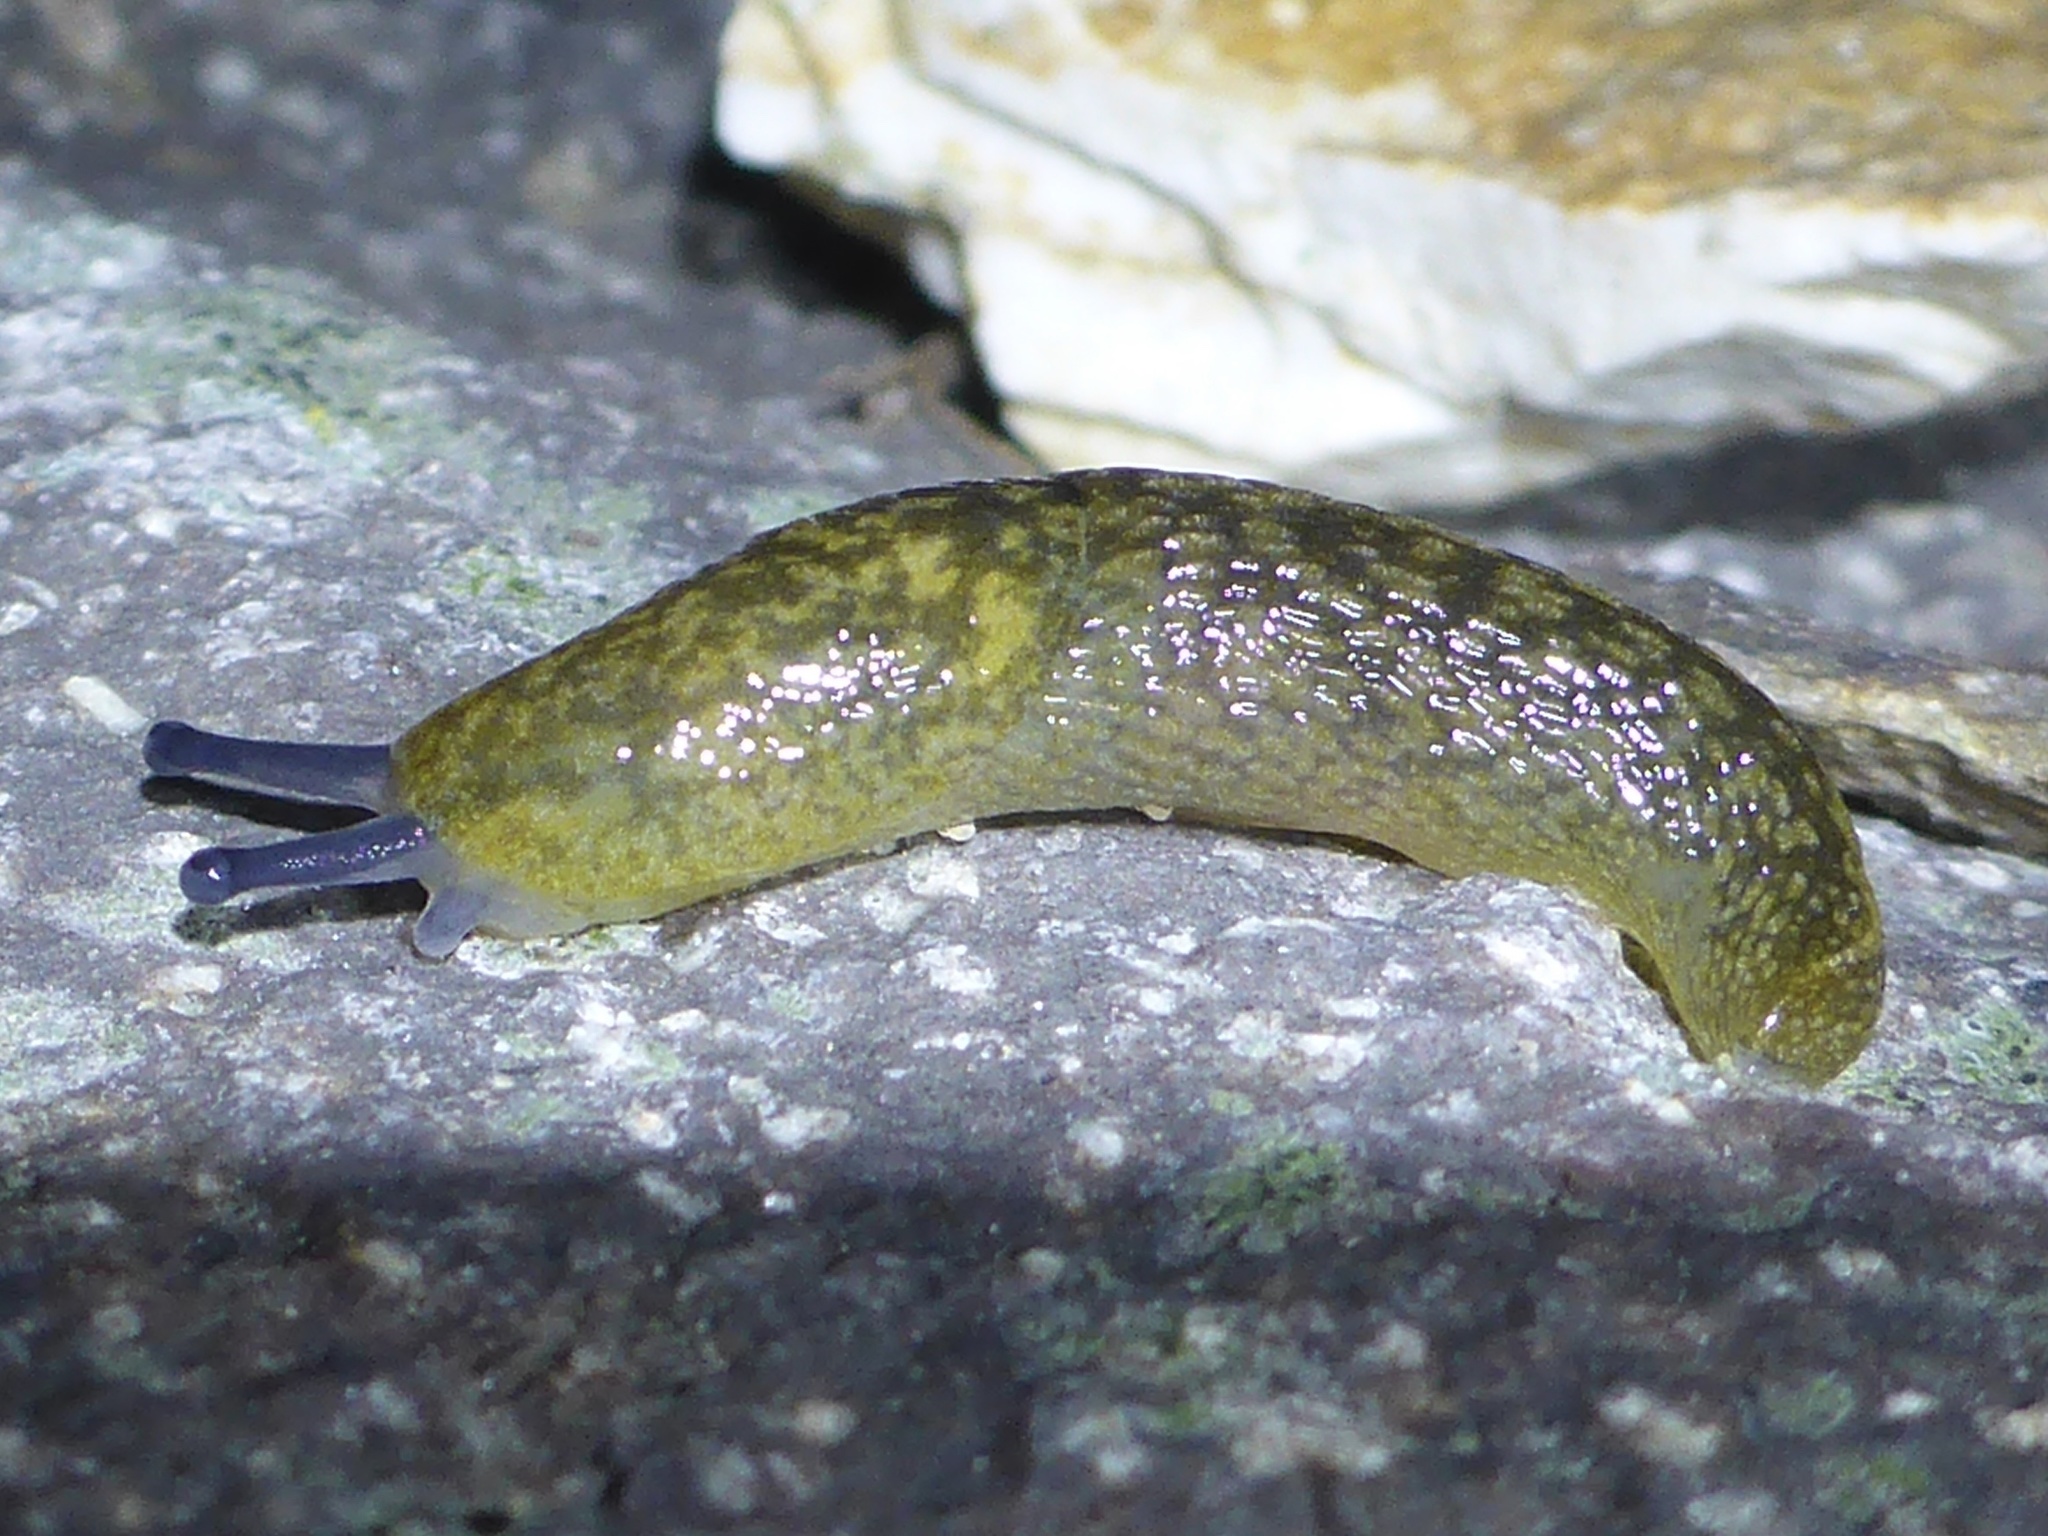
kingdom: Animalia
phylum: Mollusca
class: Gastropoda
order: Stylommatophora
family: Limacidae
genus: Limacus
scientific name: Limacus flavus
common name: Yellow gardenslug
